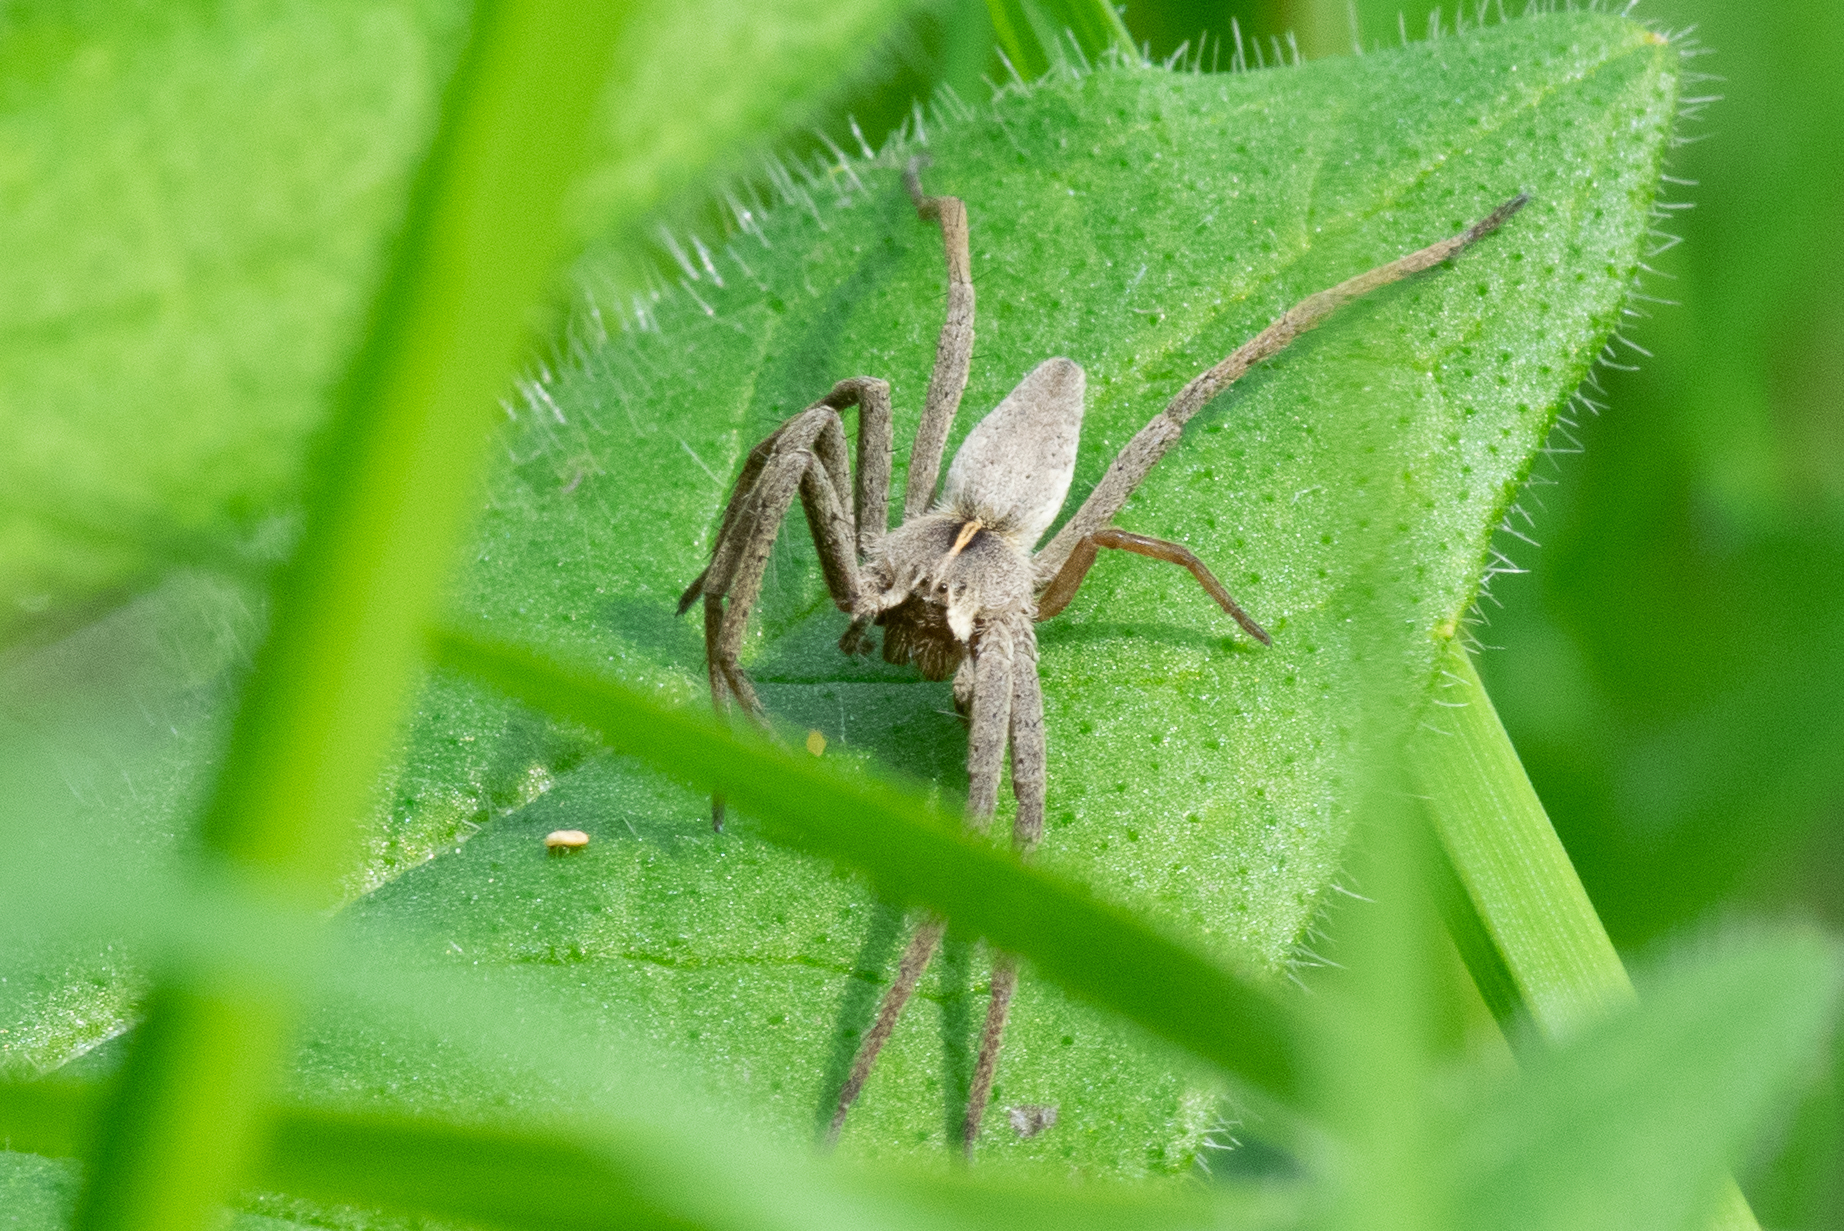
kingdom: Animalia
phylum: Arthropoda
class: Arachnida
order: Araneae
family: Pisauridae
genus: Pisaura
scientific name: Pisaura mirabilis
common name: Tent spider
